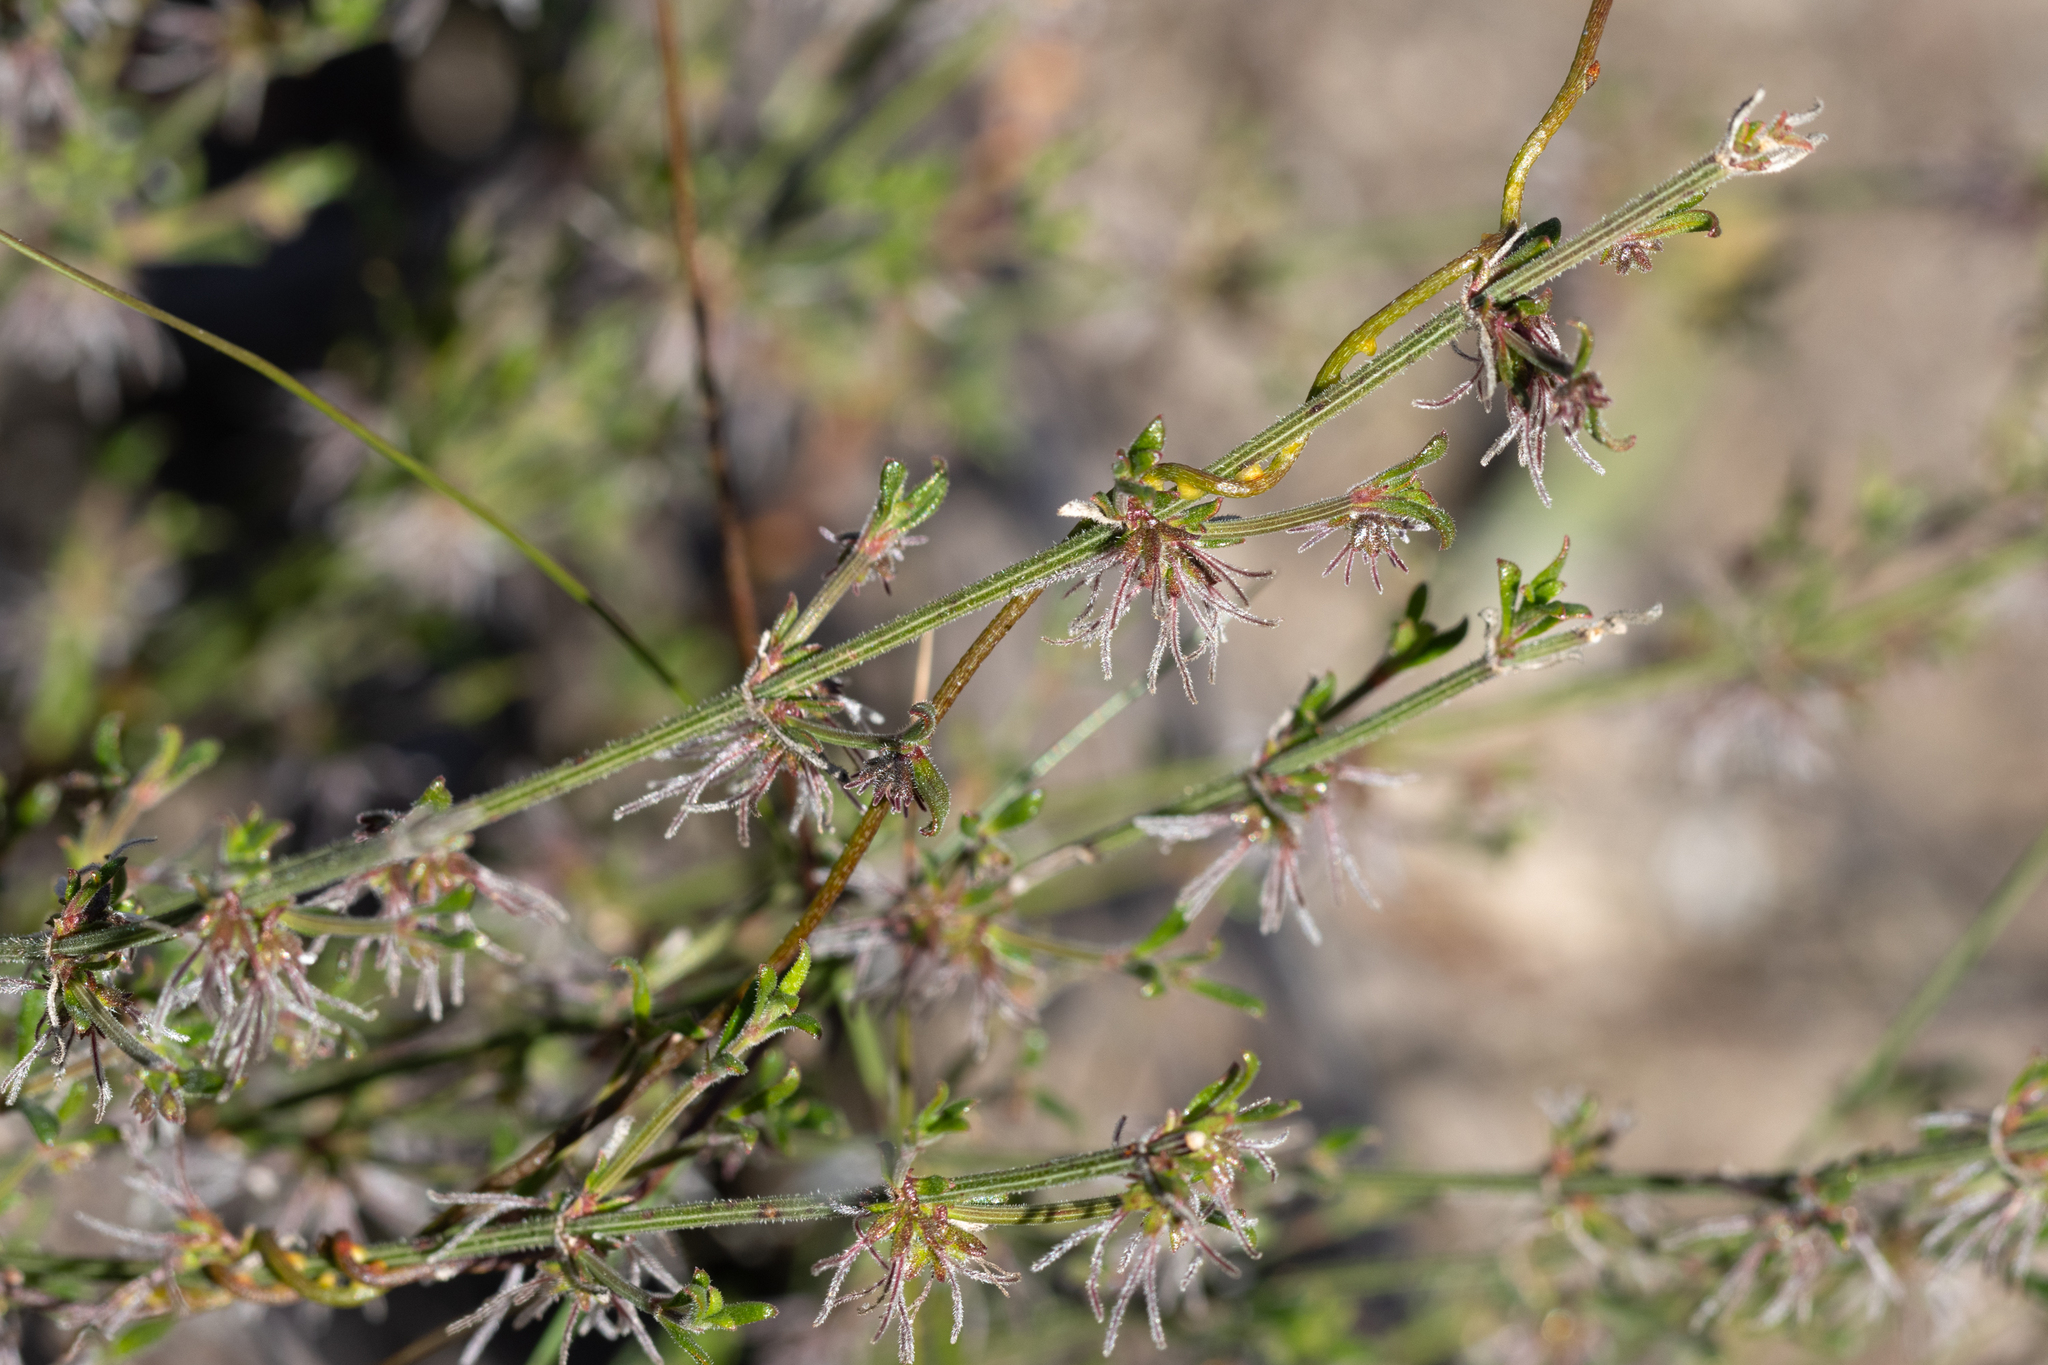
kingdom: Plantae
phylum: Tracheophyta
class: Magnoliopsida
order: Gentianales
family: Rubiaceae
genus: Opercularia
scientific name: Opercularia turpis
